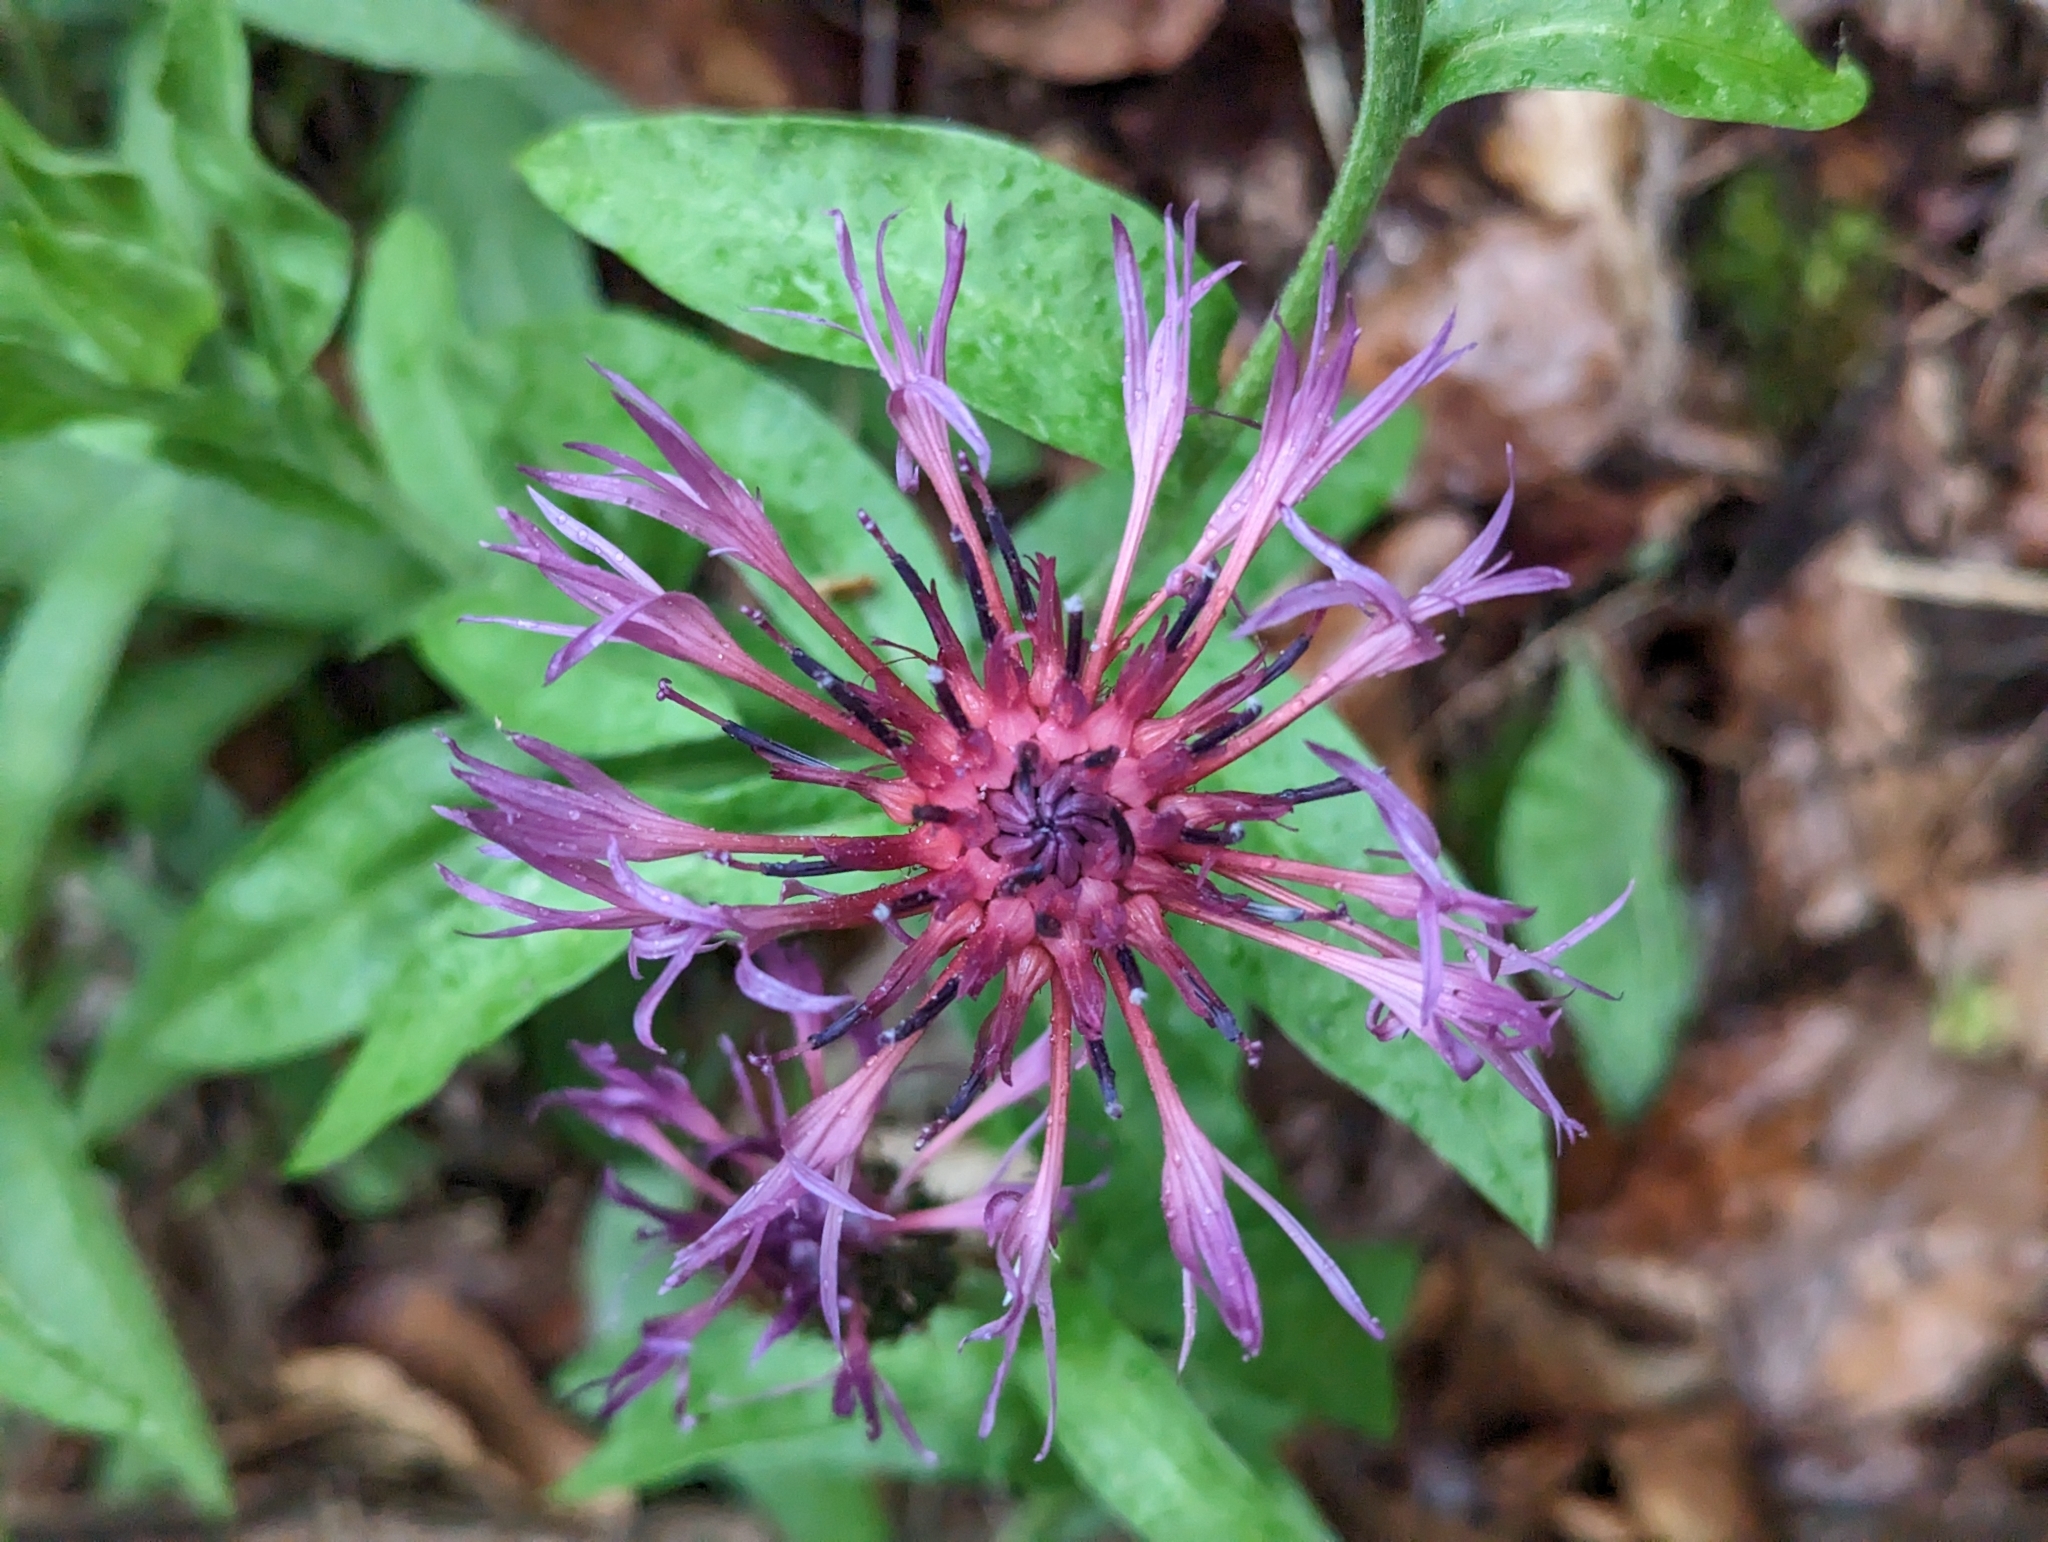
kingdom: Plantae
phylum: Tracheophyta
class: Magnoliopsida
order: Asterales
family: Asteraceae
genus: Centaurea
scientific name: Centaurea triumfettii
